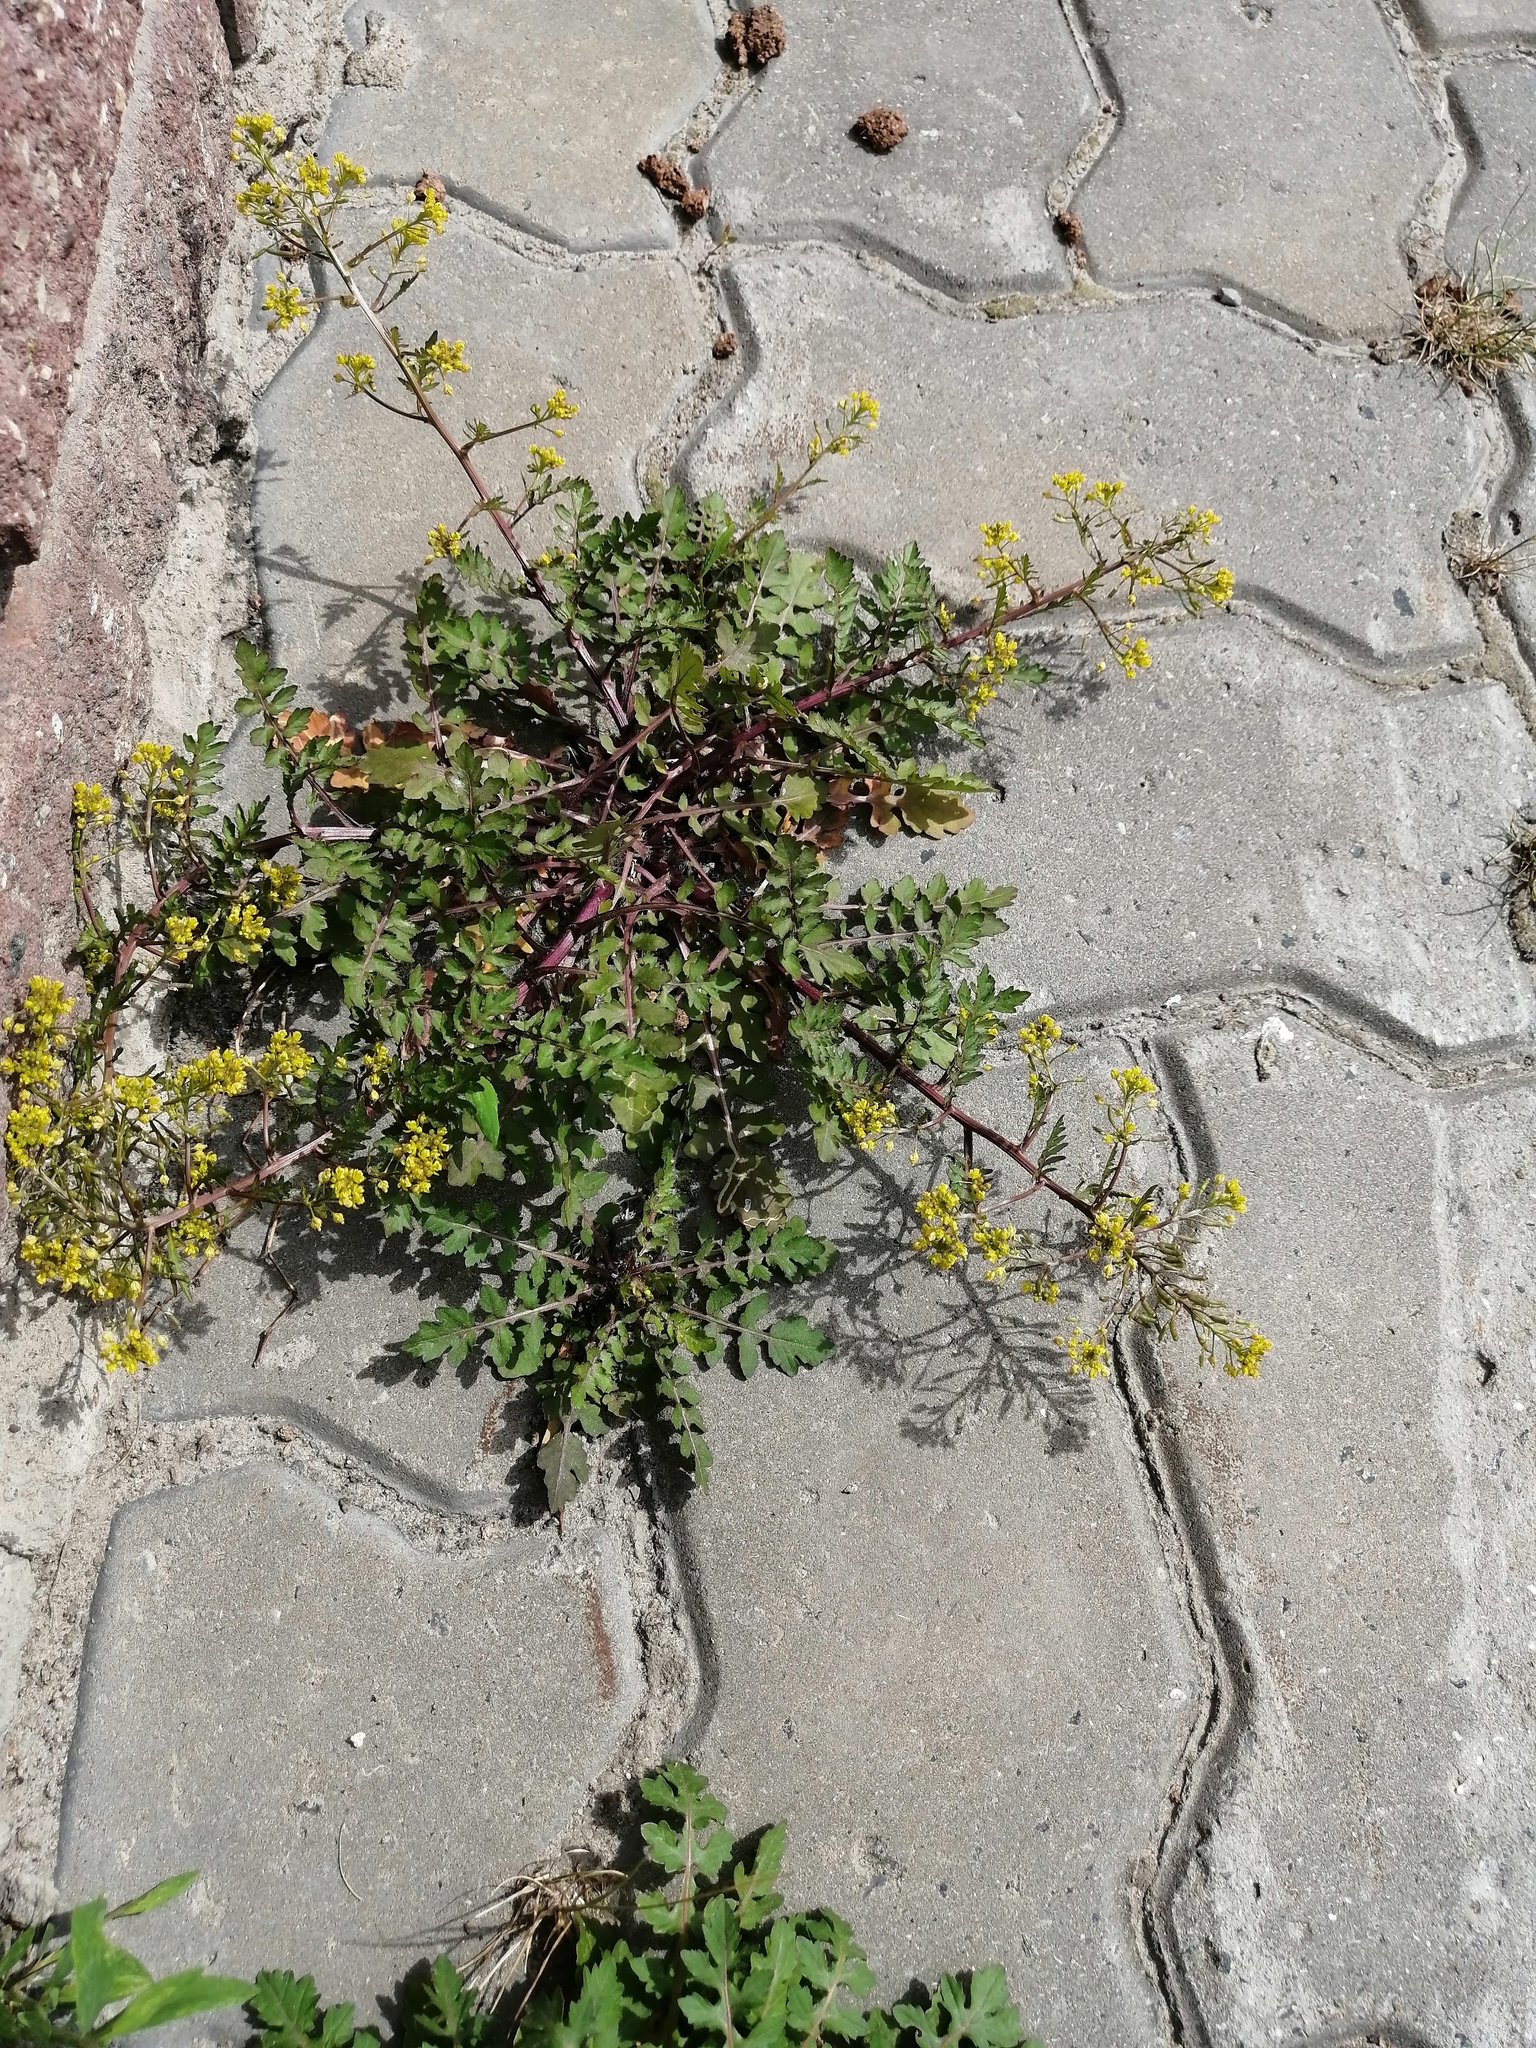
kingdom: Plantae
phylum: Tracheophyta
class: Magnoliopsida
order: Brassicales
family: Brassicaceae
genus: Rorippa
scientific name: Rorippa palustris
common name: Marsh yellow-cress
